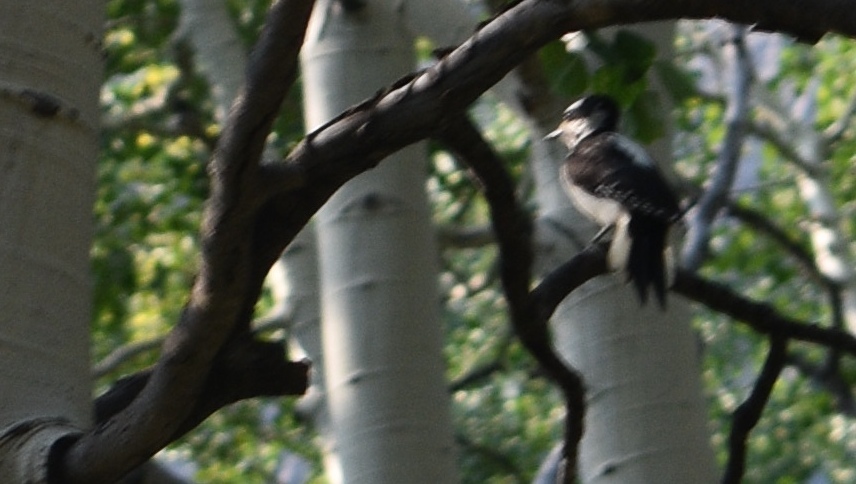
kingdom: Animalia
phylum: Chordata
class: Aves
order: Piciformes
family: Picidae
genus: Leuconotopicus
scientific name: Leuconotopicus villosus
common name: Hairy woodpecker
